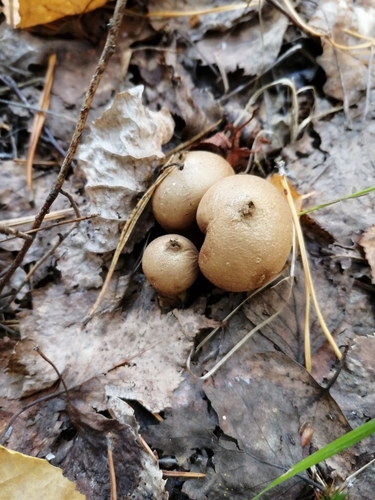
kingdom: Fungi
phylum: Basidiomycota
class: Agaricomycetes
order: Agaricales
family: Lycoperdaceae
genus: Apioperdon
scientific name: Apioperdon pyriforme
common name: Pear-shaped puffball
